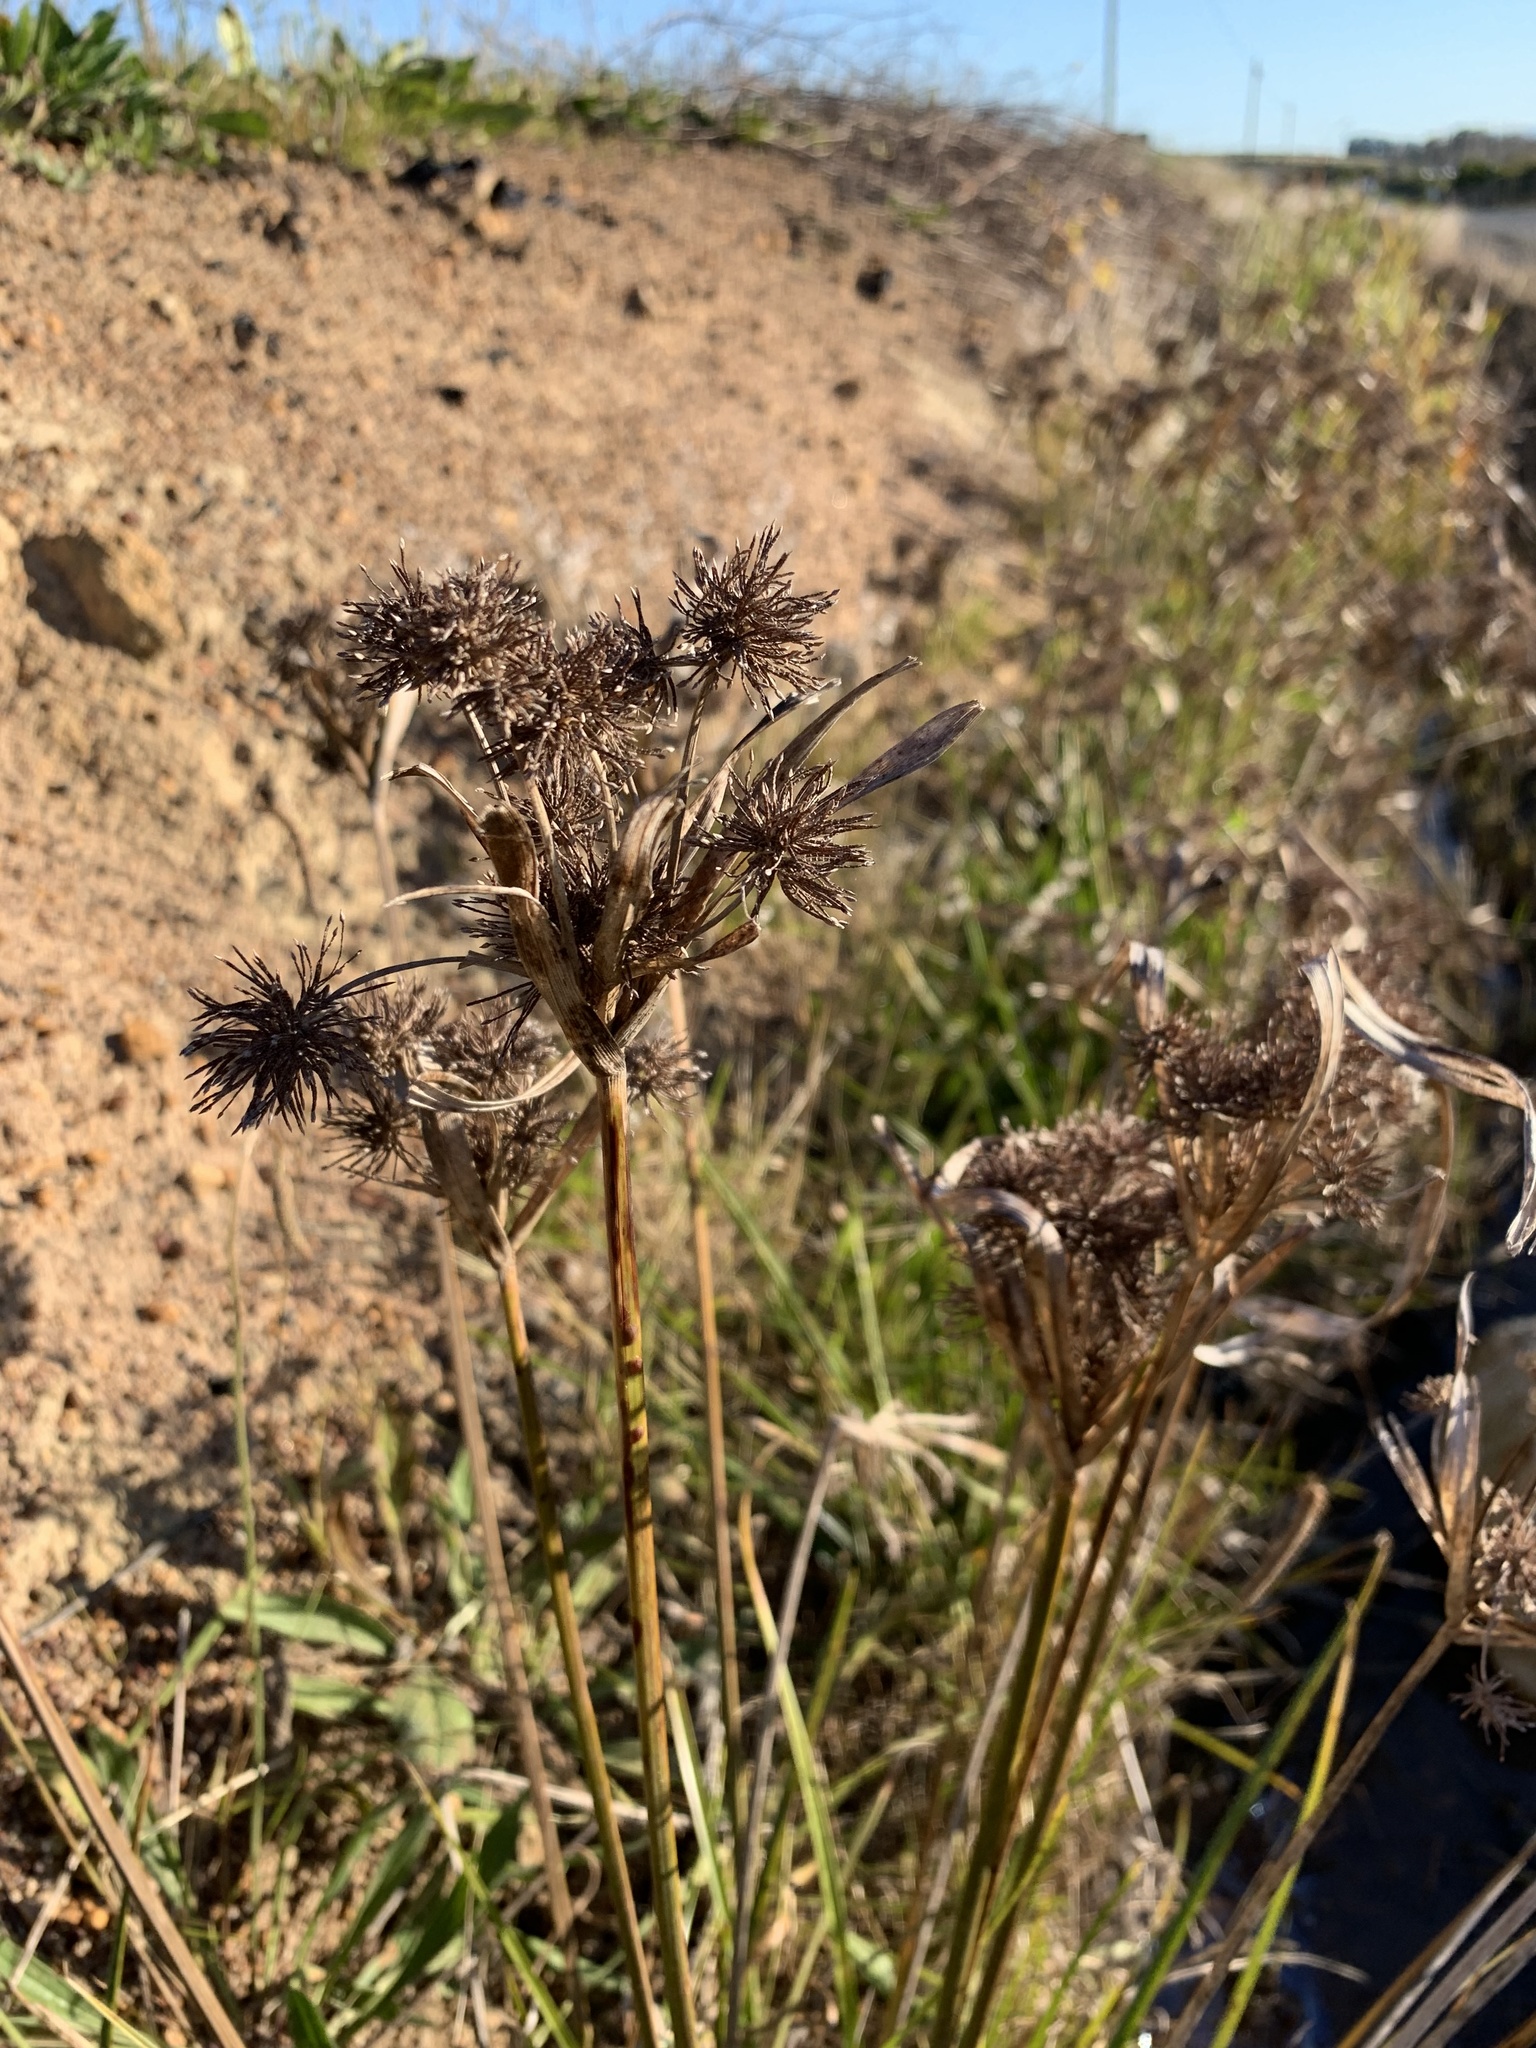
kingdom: Plantae
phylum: Tracheophyta
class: Liliopsida
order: Poales
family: Cyperaceae
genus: Cyperus
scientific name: Cyperus eragrostis
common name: Tall flatsedge
